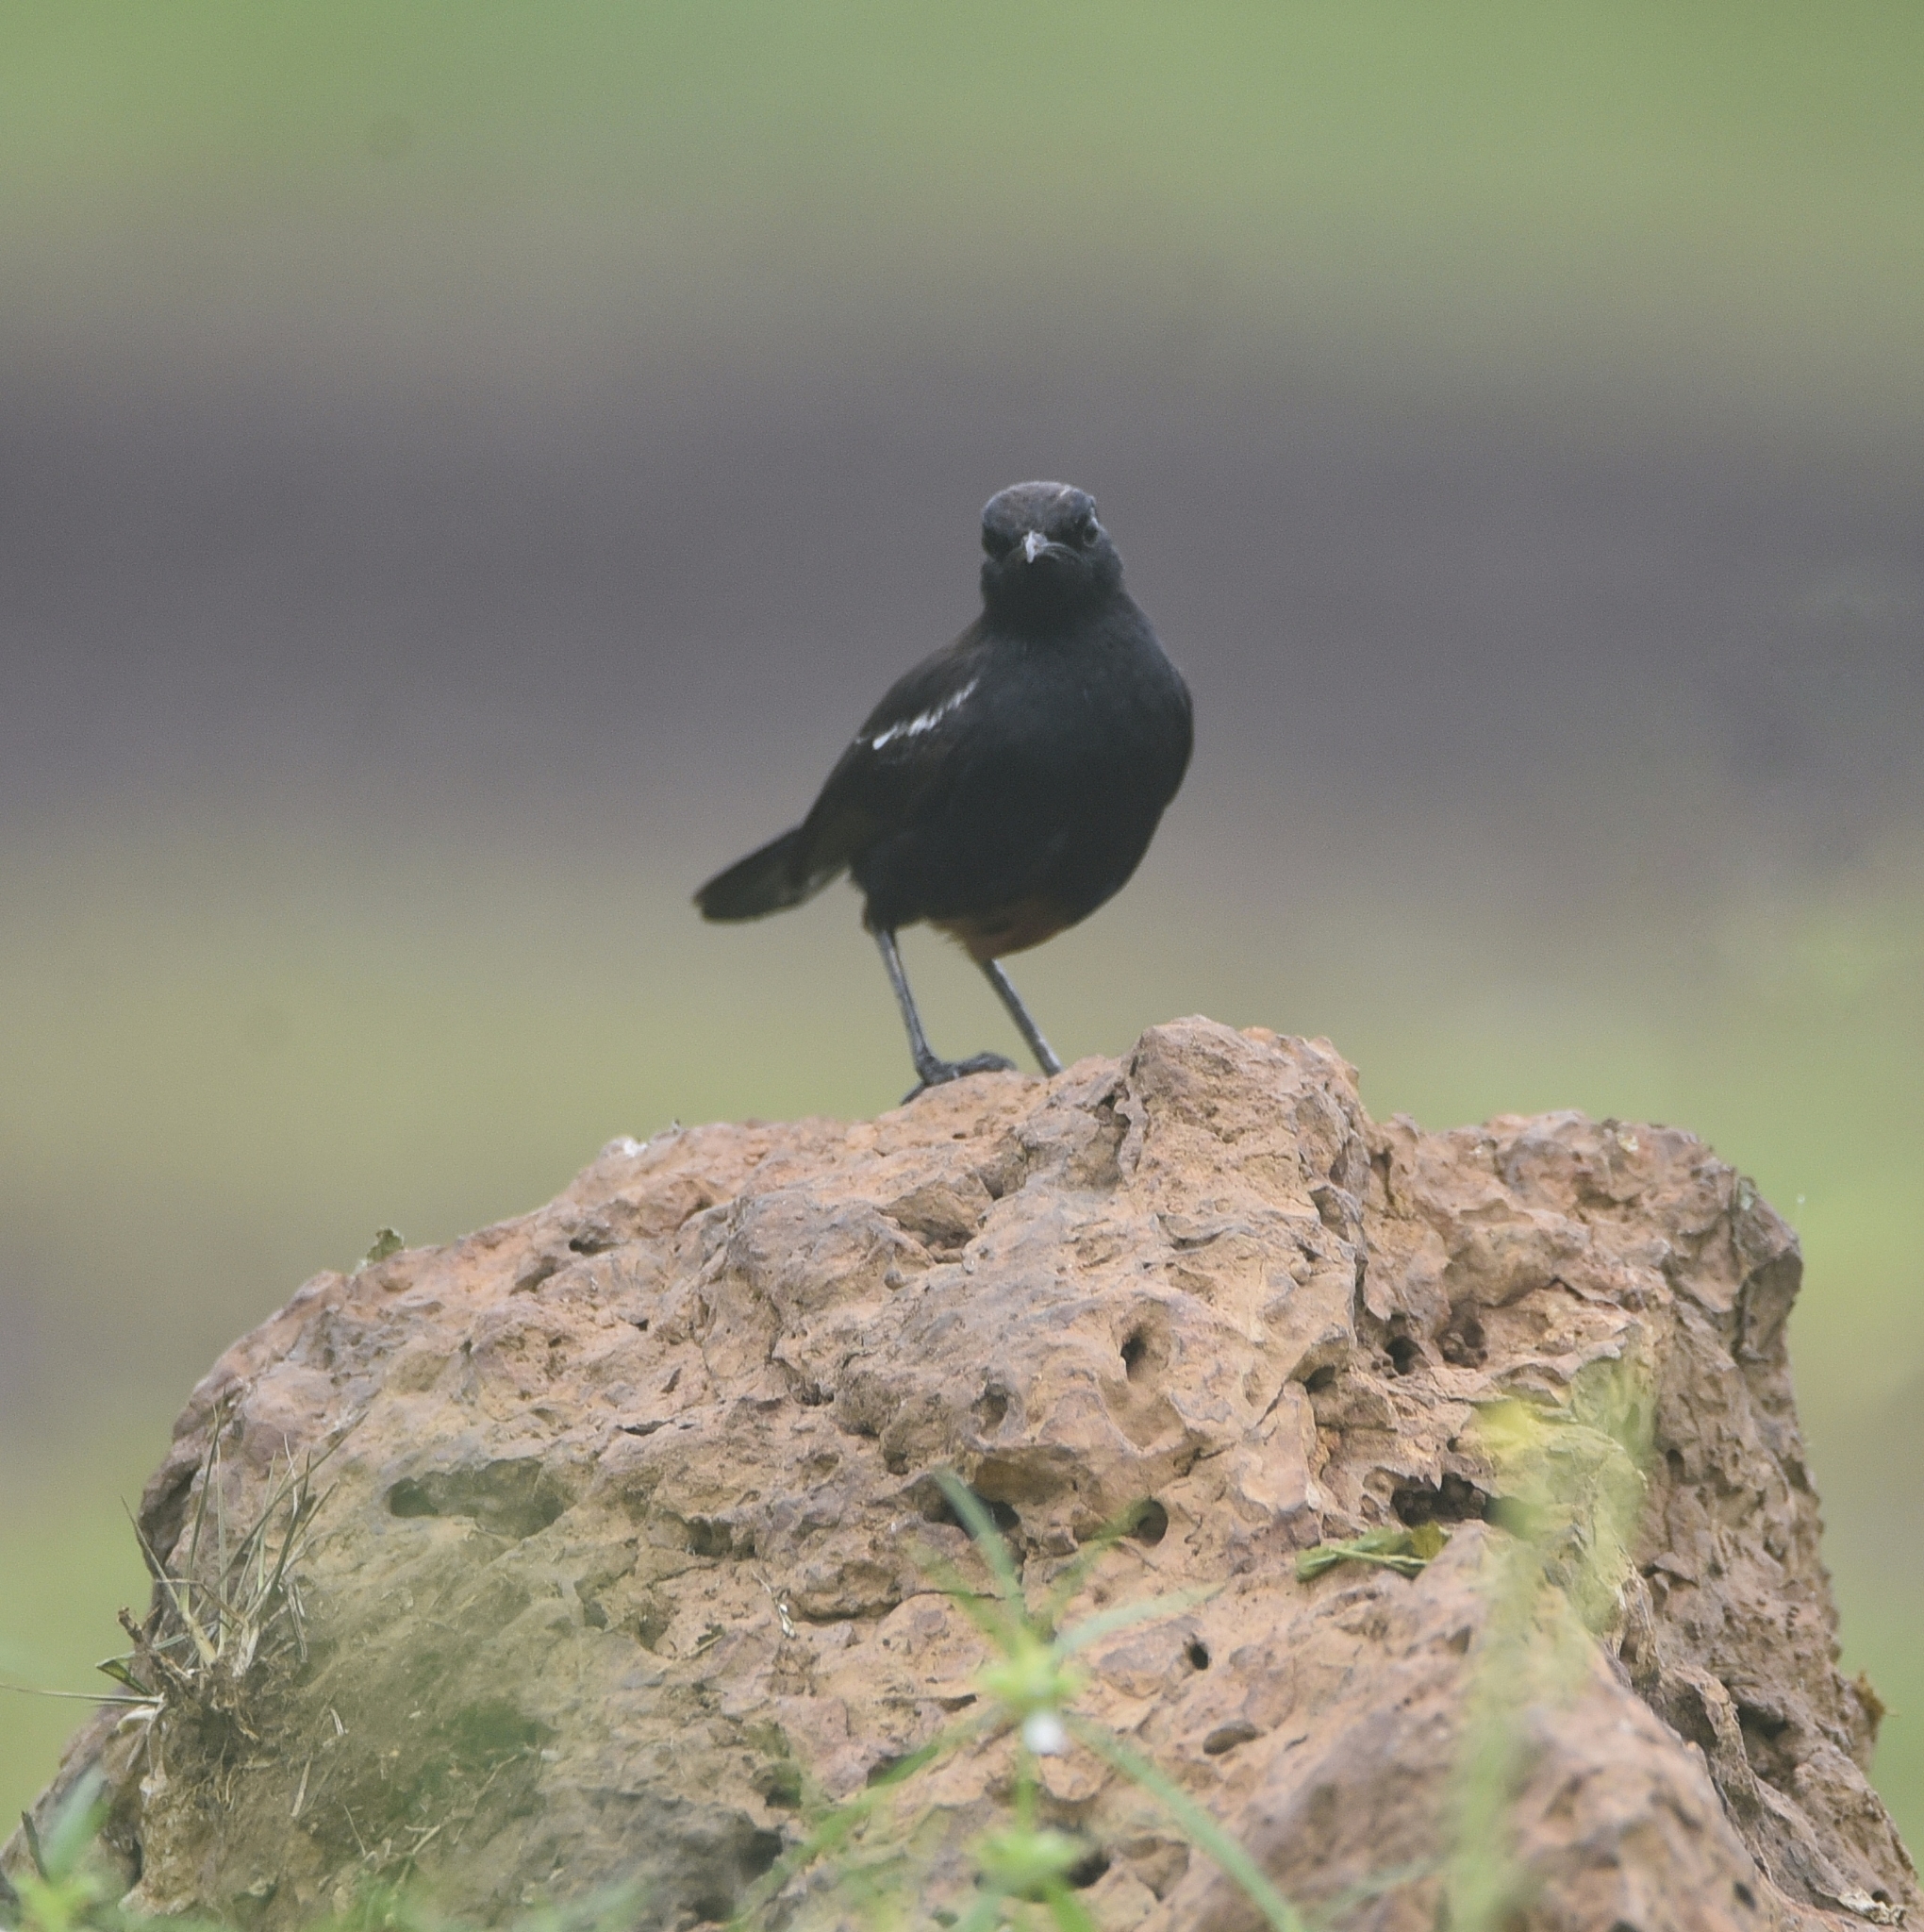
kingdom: Animalia
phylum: Chordata
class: Aves
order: Passeriformes
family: Muscicapidae
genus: Saxicoloides
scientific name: Saxicoloides fulicatus
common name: Indian robin
